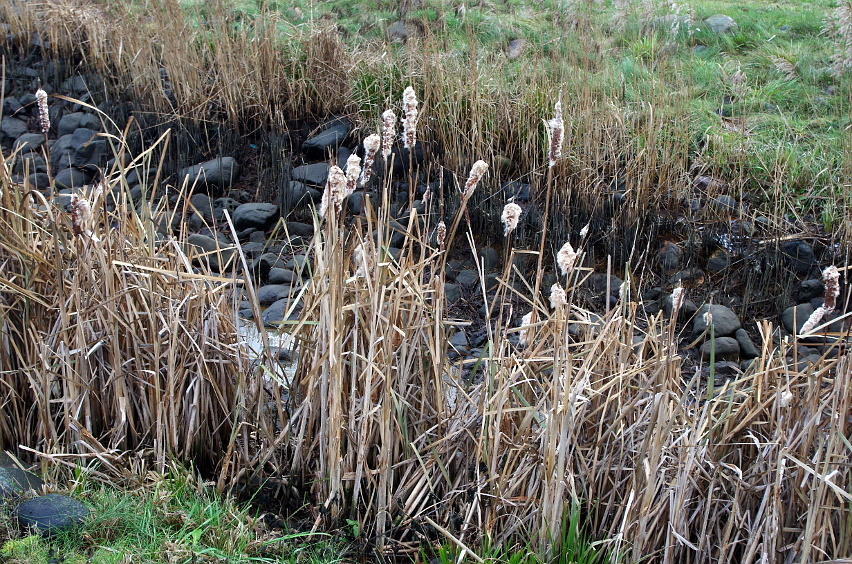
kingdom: Plantae
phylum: Tracheophyta
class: Liliopsida
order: Poales
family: Typhaceae
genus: Typha
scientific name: Typha latifolia
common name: Broadleaf cattail
